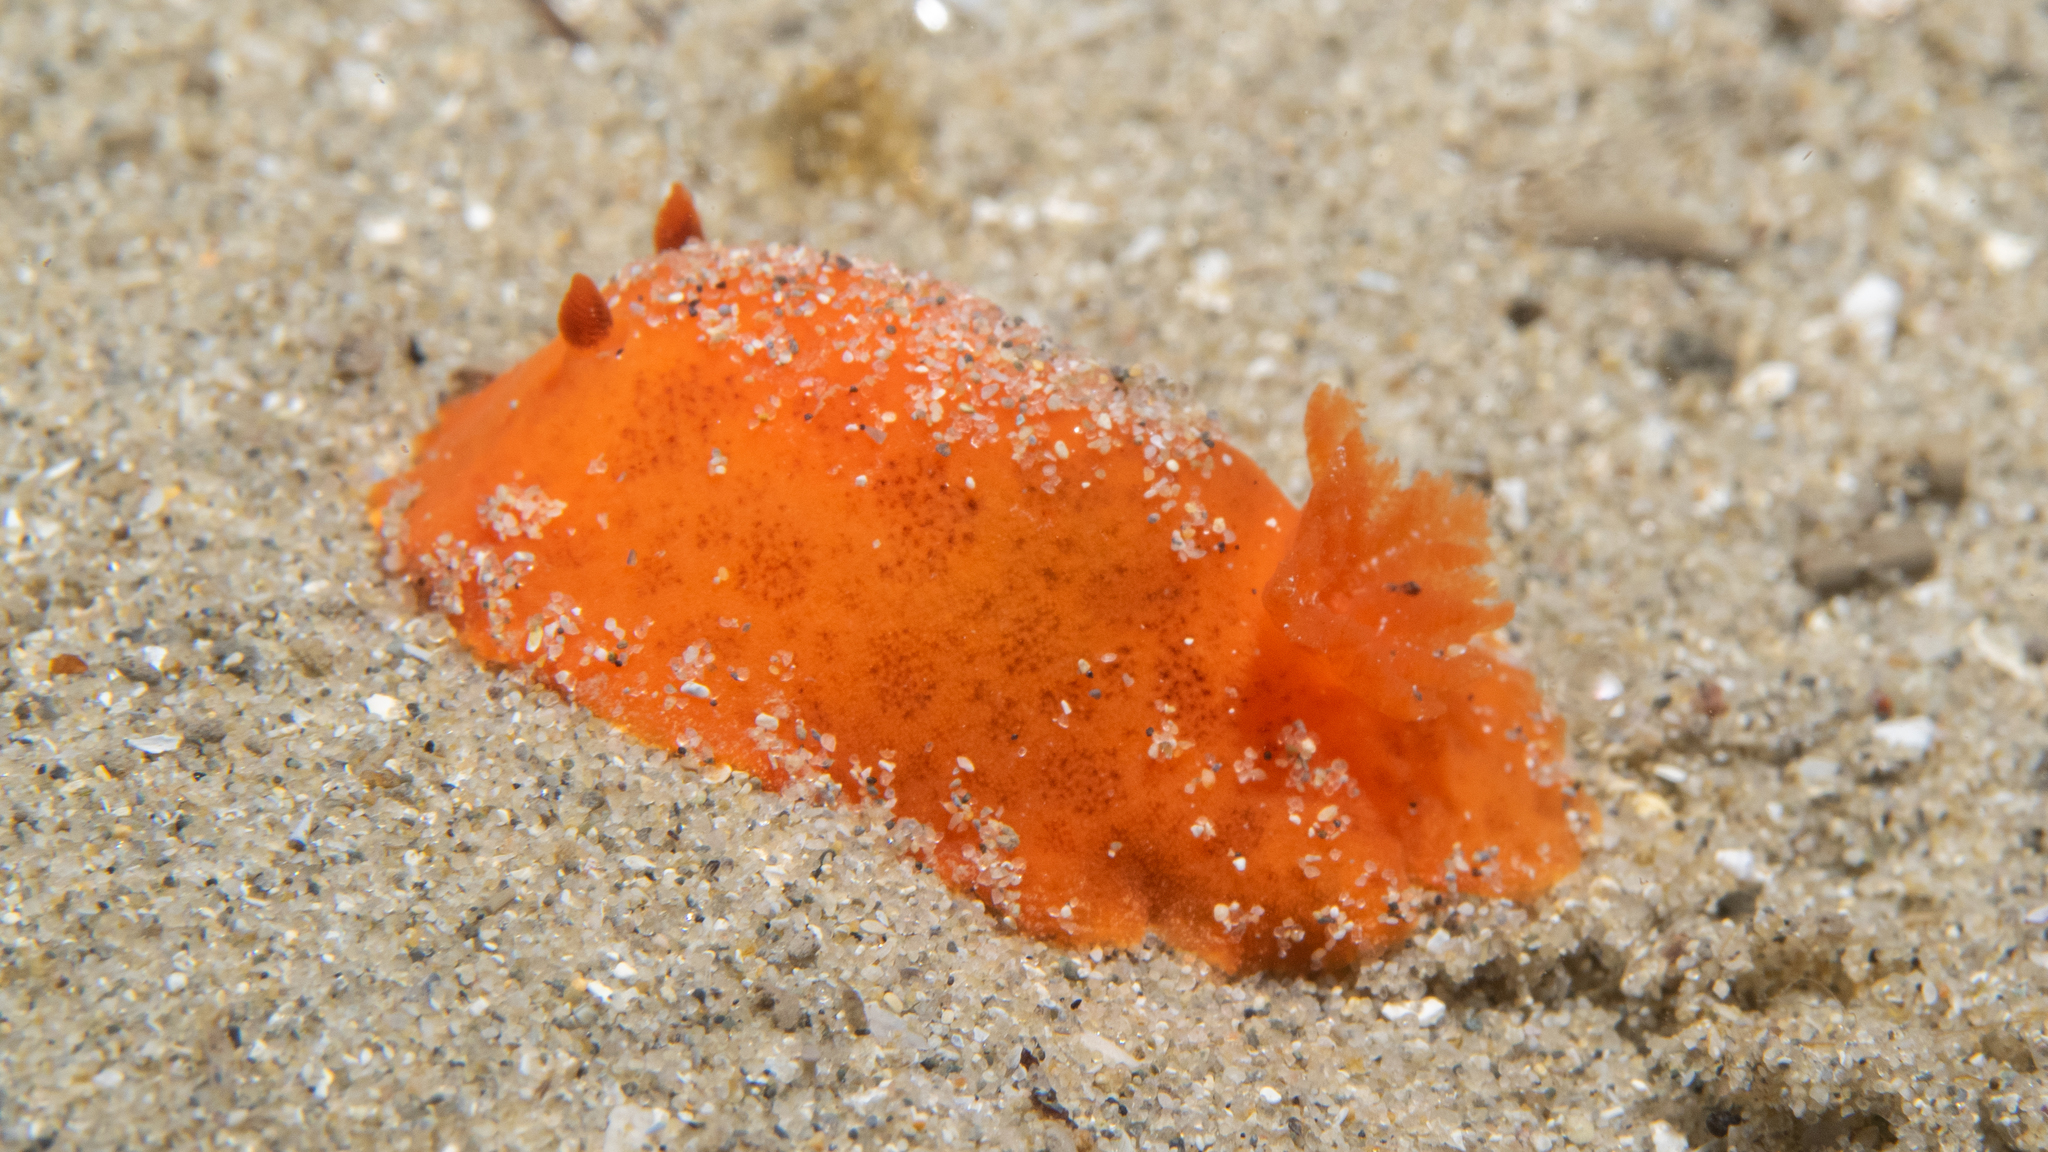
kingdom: Animalia
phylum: Mollusca
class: Gastropoda
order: Nudibranchia
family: Discodorididae
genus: Discodoris
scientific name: Discodoris paroa
